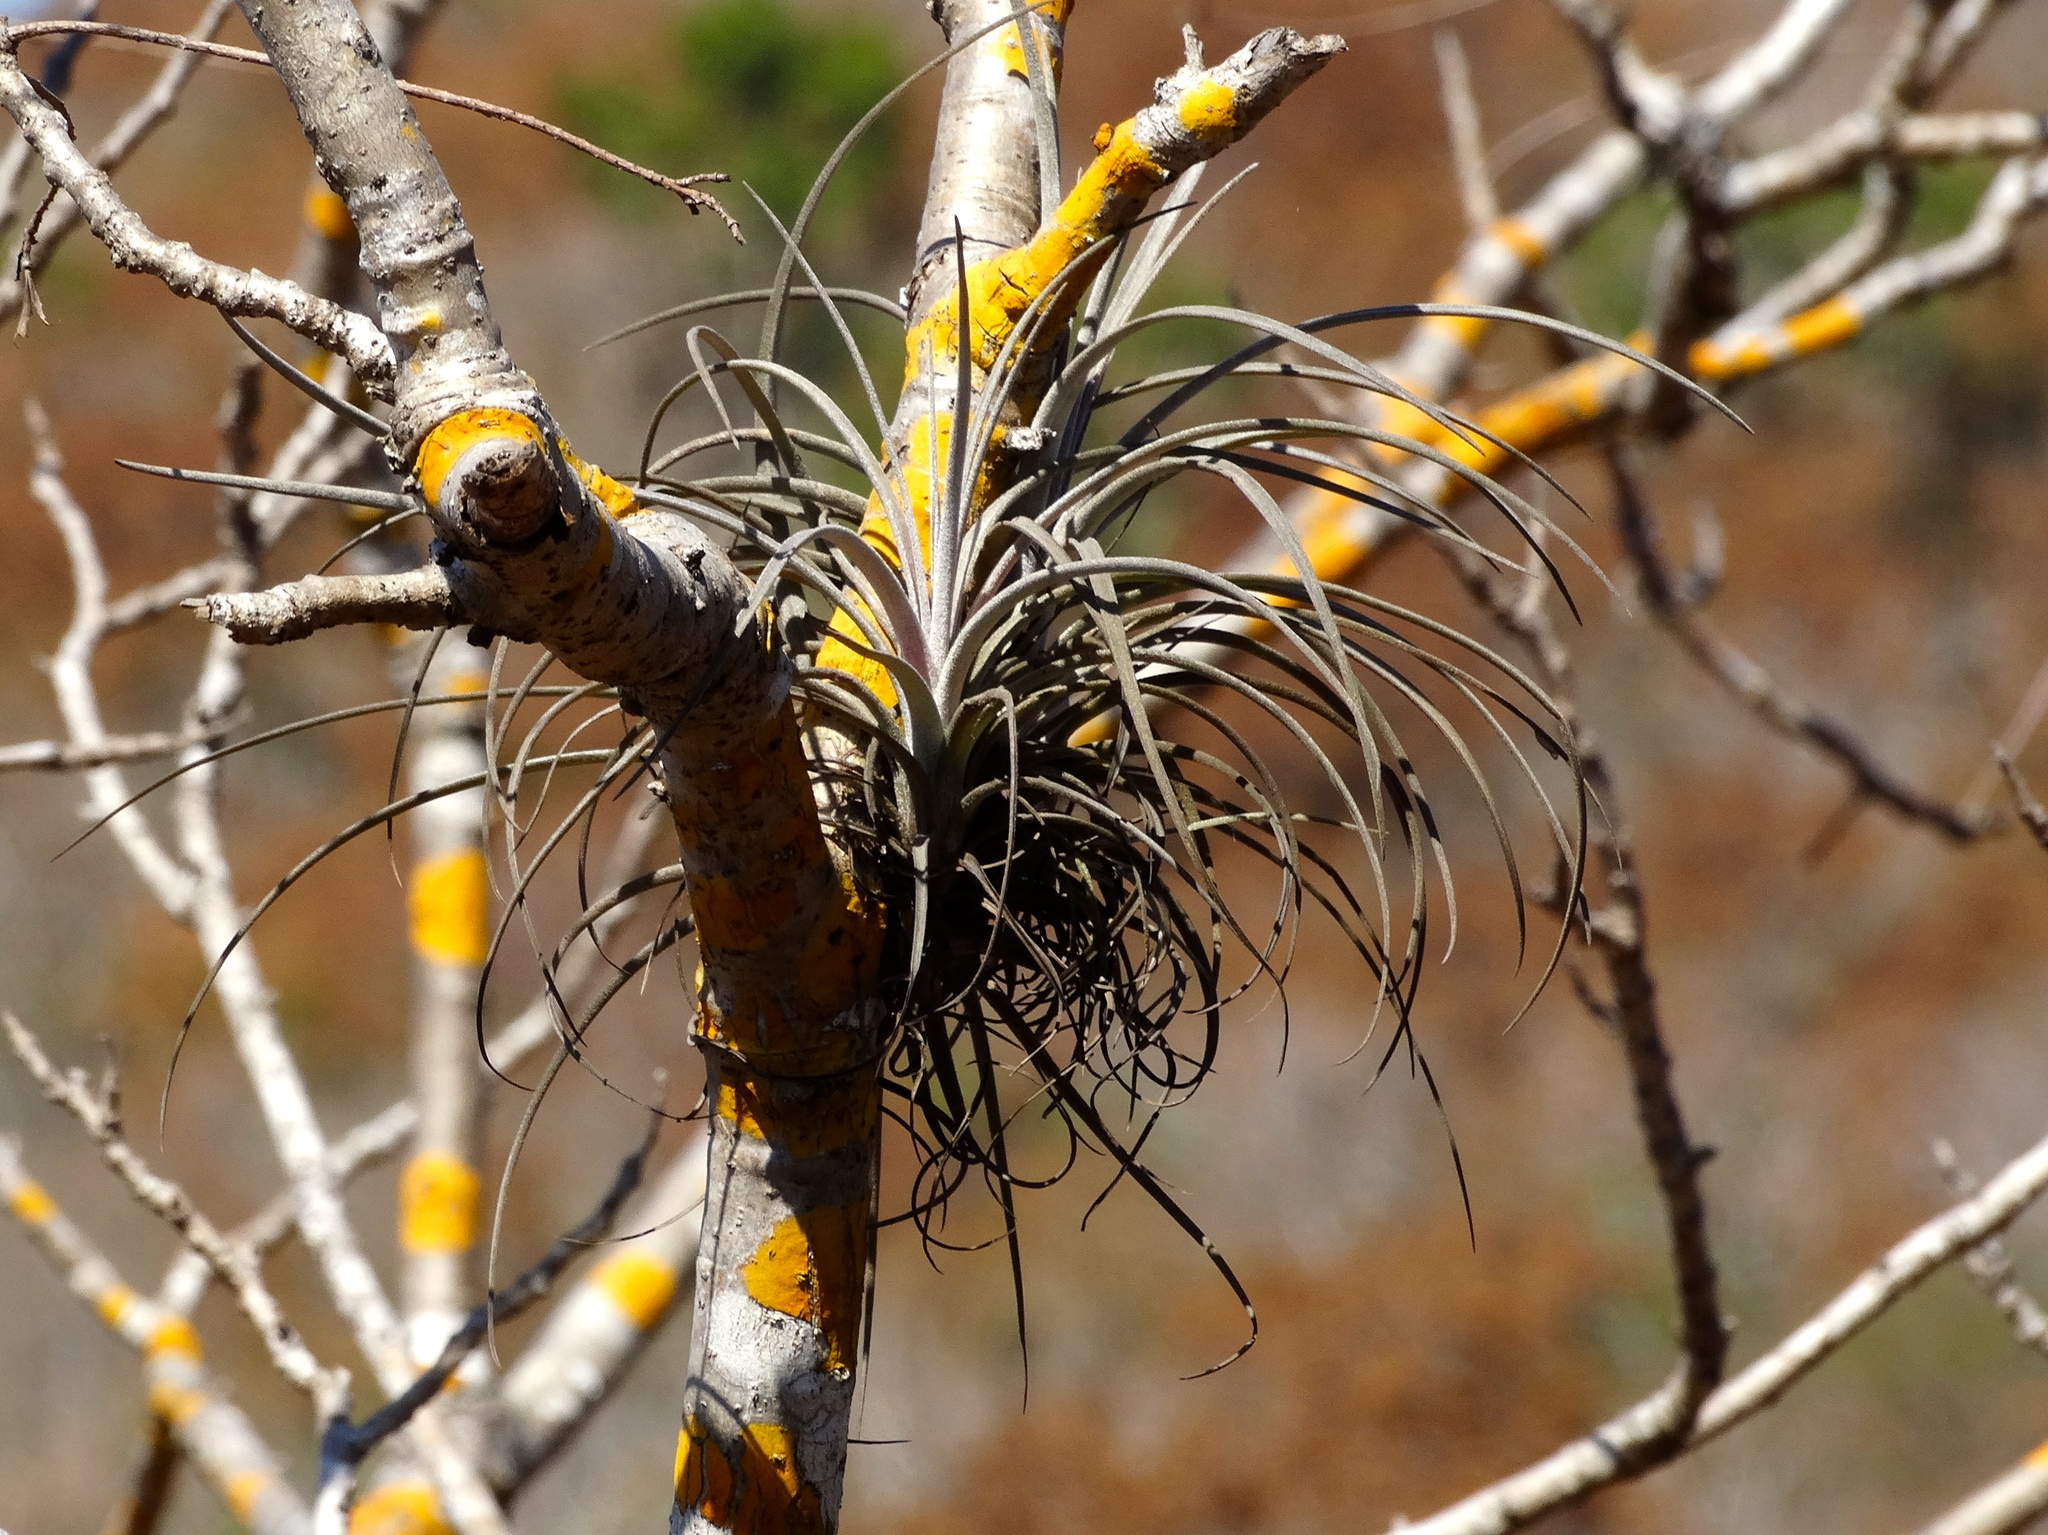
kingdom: Plantae
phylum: Tracheophyta
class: Liliopsida
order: Poales
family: Bromeliaceae
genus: Tillandsia
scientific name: Tillandsia exserta
